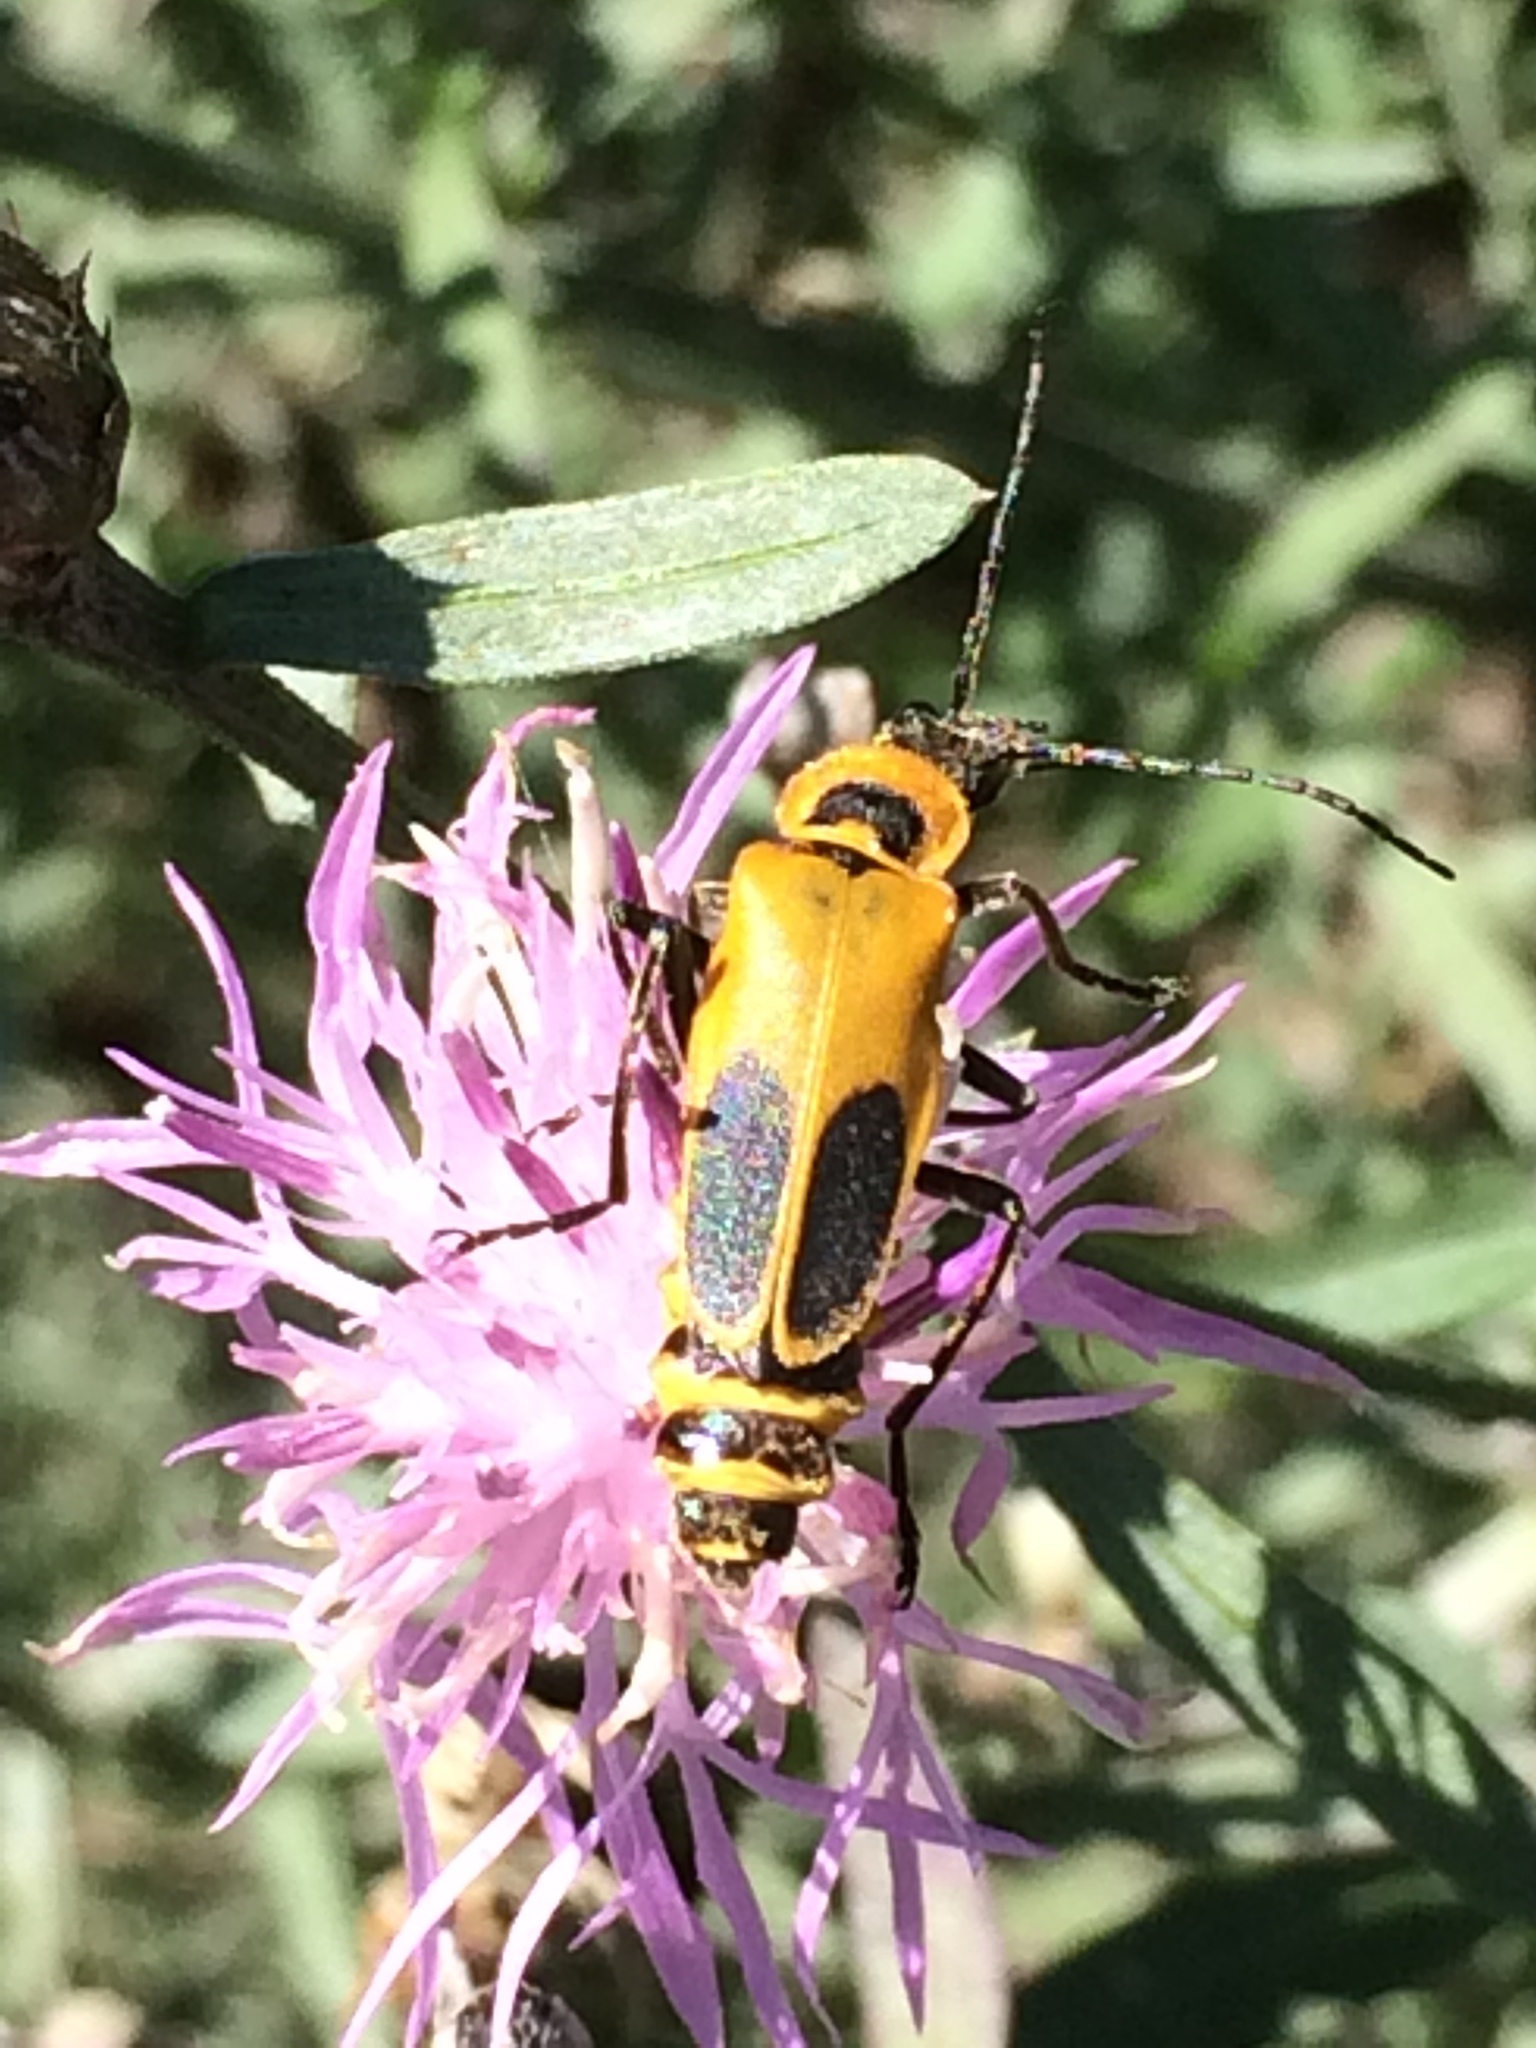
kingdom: Animalia
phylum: Arthropoda
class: Insecta
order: Coleoptera
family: Cantharidae
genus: Chauliognathus
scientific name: Chauliognathus pensylvanicus
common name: Goldenrod soldier beetle
